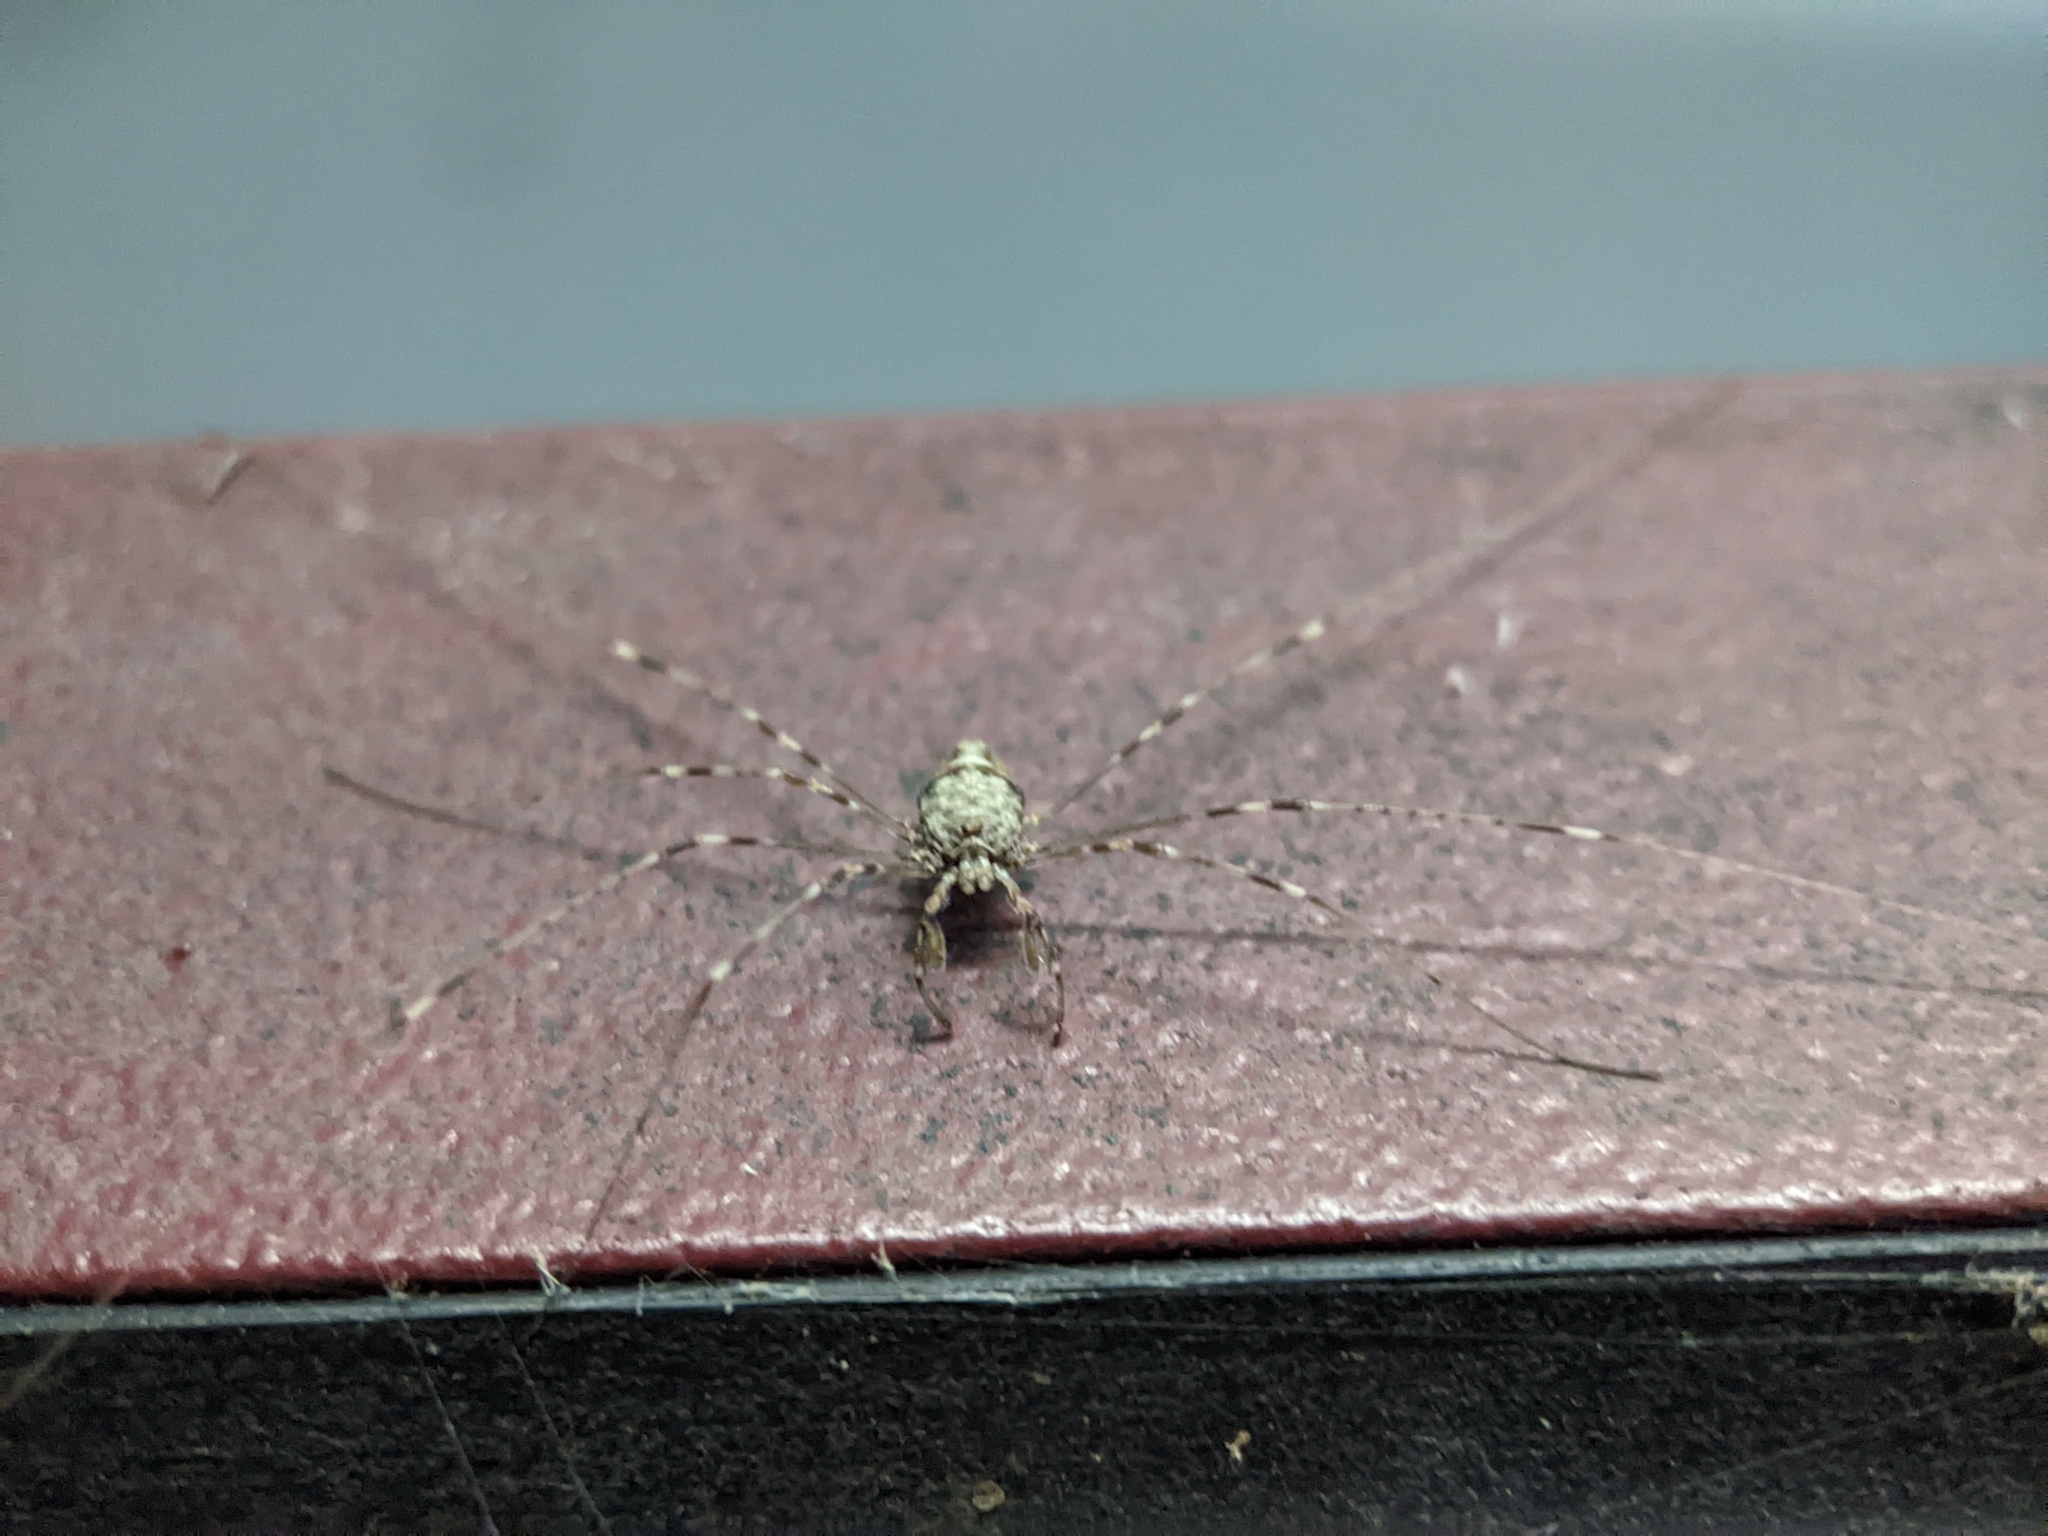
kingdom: Animalia
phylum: Arthropoda
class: Arachnida
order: Opiliones
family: Phalangiidae
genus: Dicranopalpus
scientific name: Dicranopalpus ramosus
